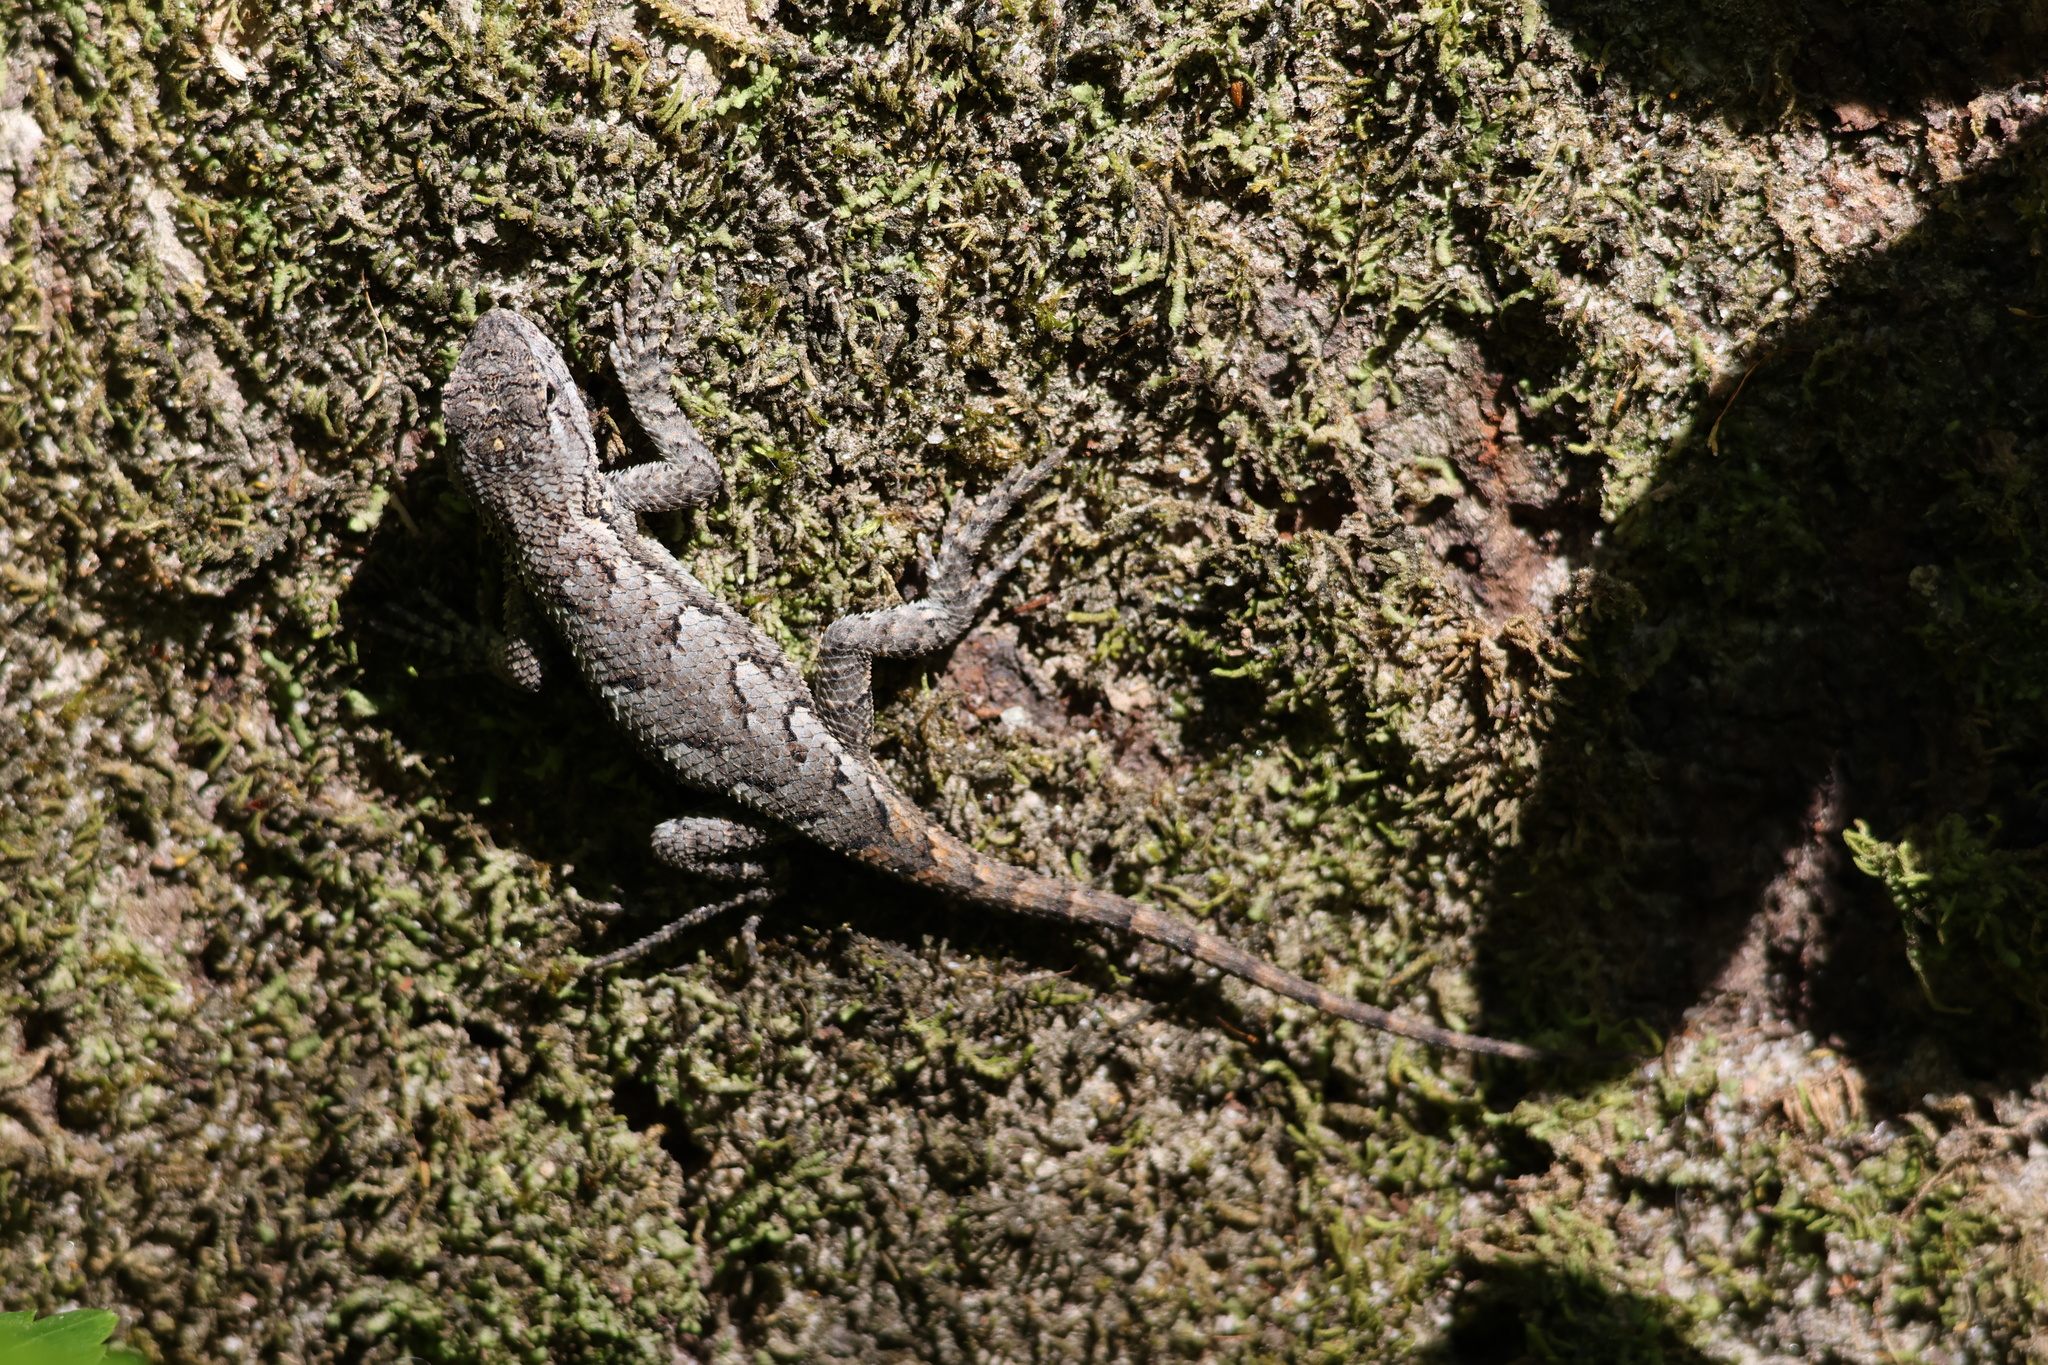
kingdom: Animalia
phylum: Chordata
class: Squamata
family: Phrynosomatidae
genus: Sceloporus
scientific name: Sceloporus undulatus
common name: Eastern fence lizard
